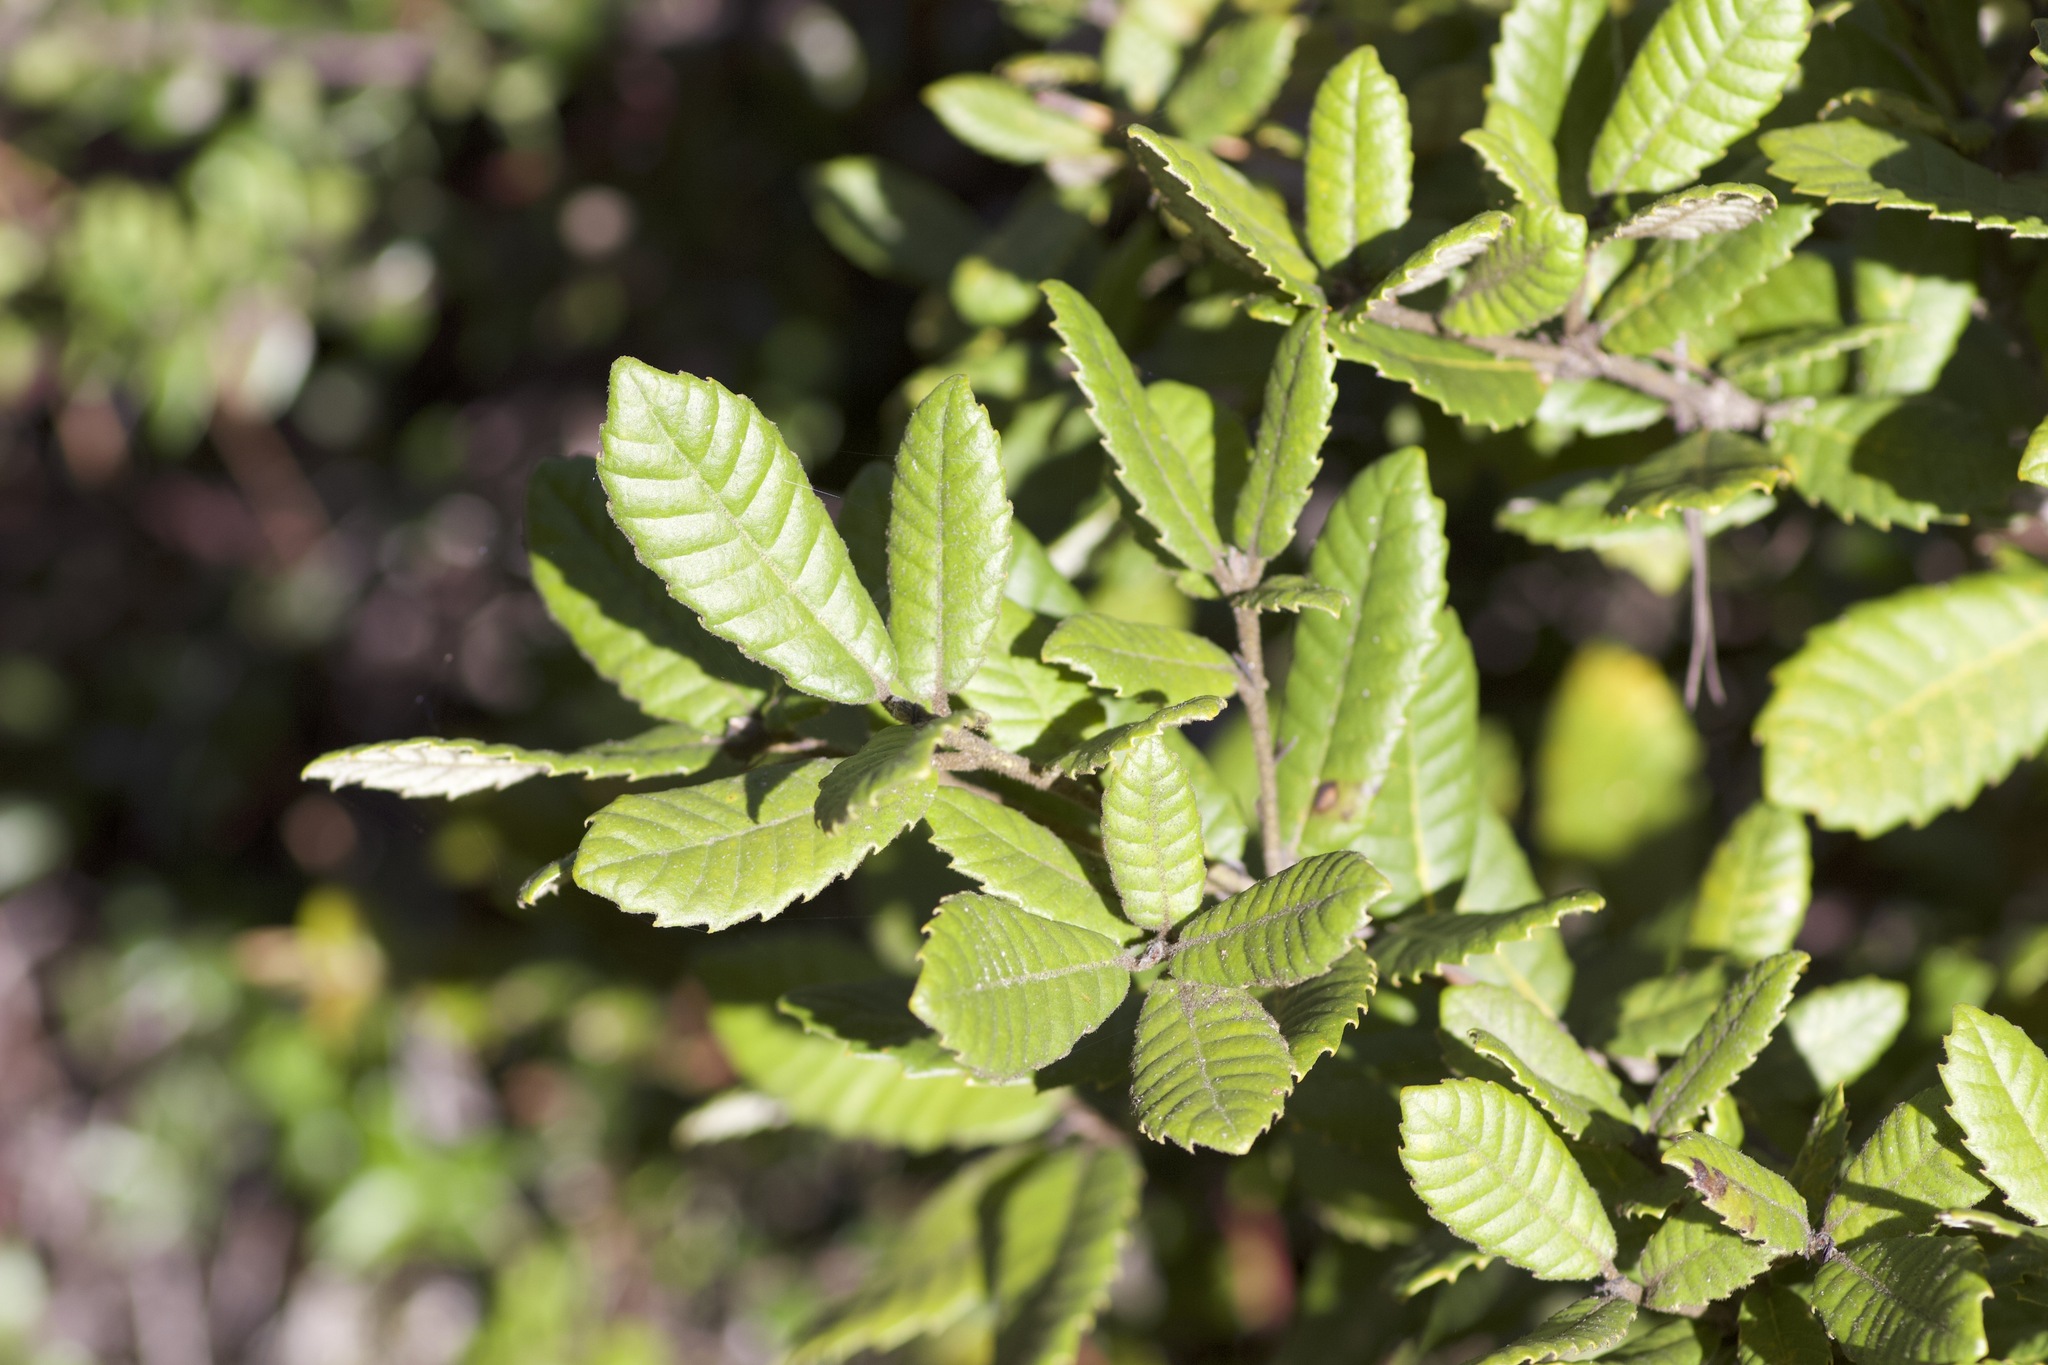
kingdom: Plantae
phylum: Tracheophyta
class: Magnoliopsida
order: Fagales
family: Fagaceae
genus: Notholithocarpus
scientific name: Notholithocarpus densiflorus
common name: Tan bark oak
